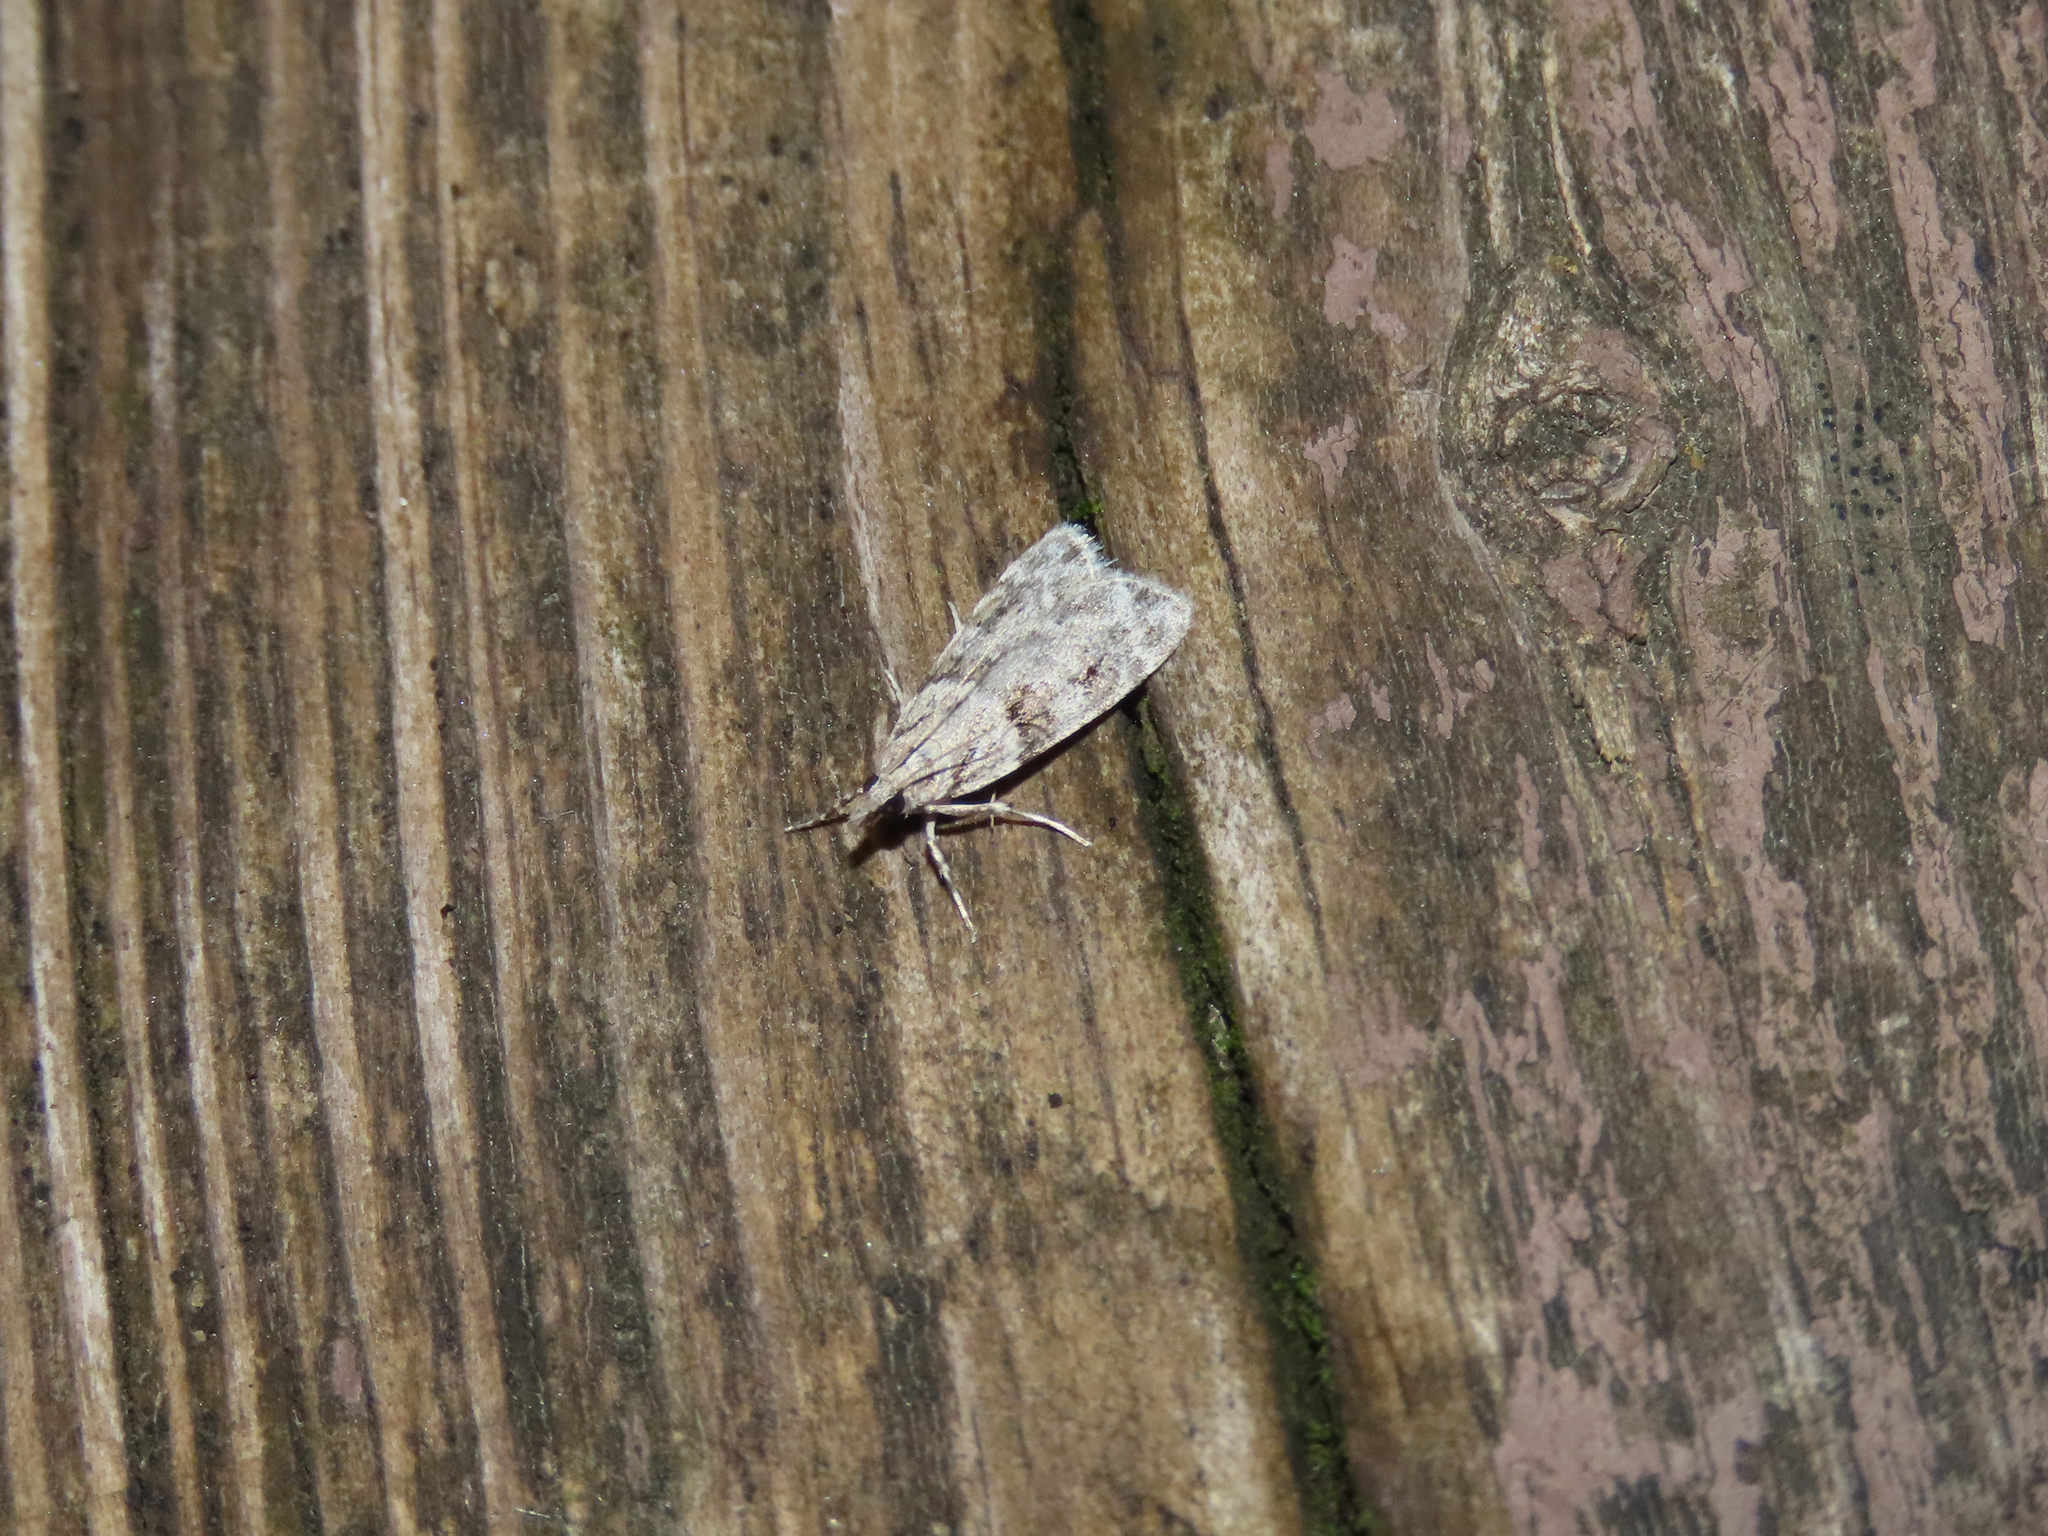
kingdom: Animalia
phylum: Arthropoda
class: Insecta
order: Lepidoptera
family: Crambidae
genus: Scoparia
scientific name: Scoparia biplagialis
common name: Double-striped scoparia moth
